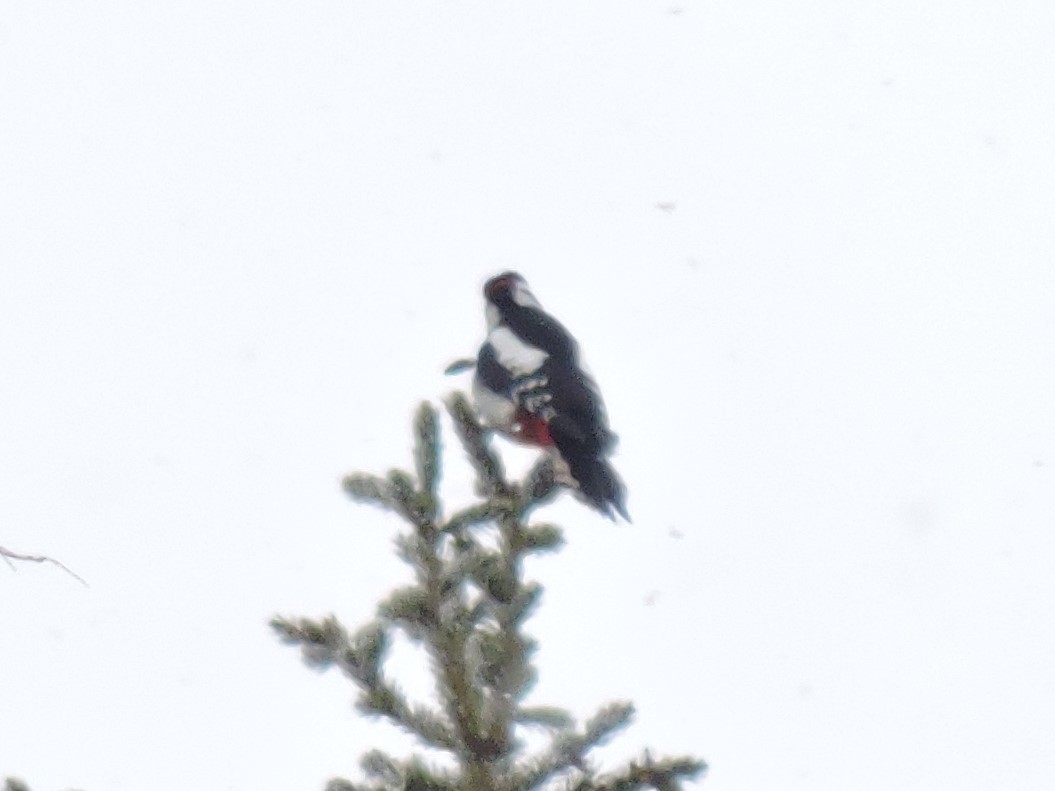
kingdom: Animalia
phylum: Chordata
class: Aves
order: Piciformes
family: Picidae
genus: Dendrocopos
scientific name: Dendrocopos major
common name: Great spotted woodpecker
